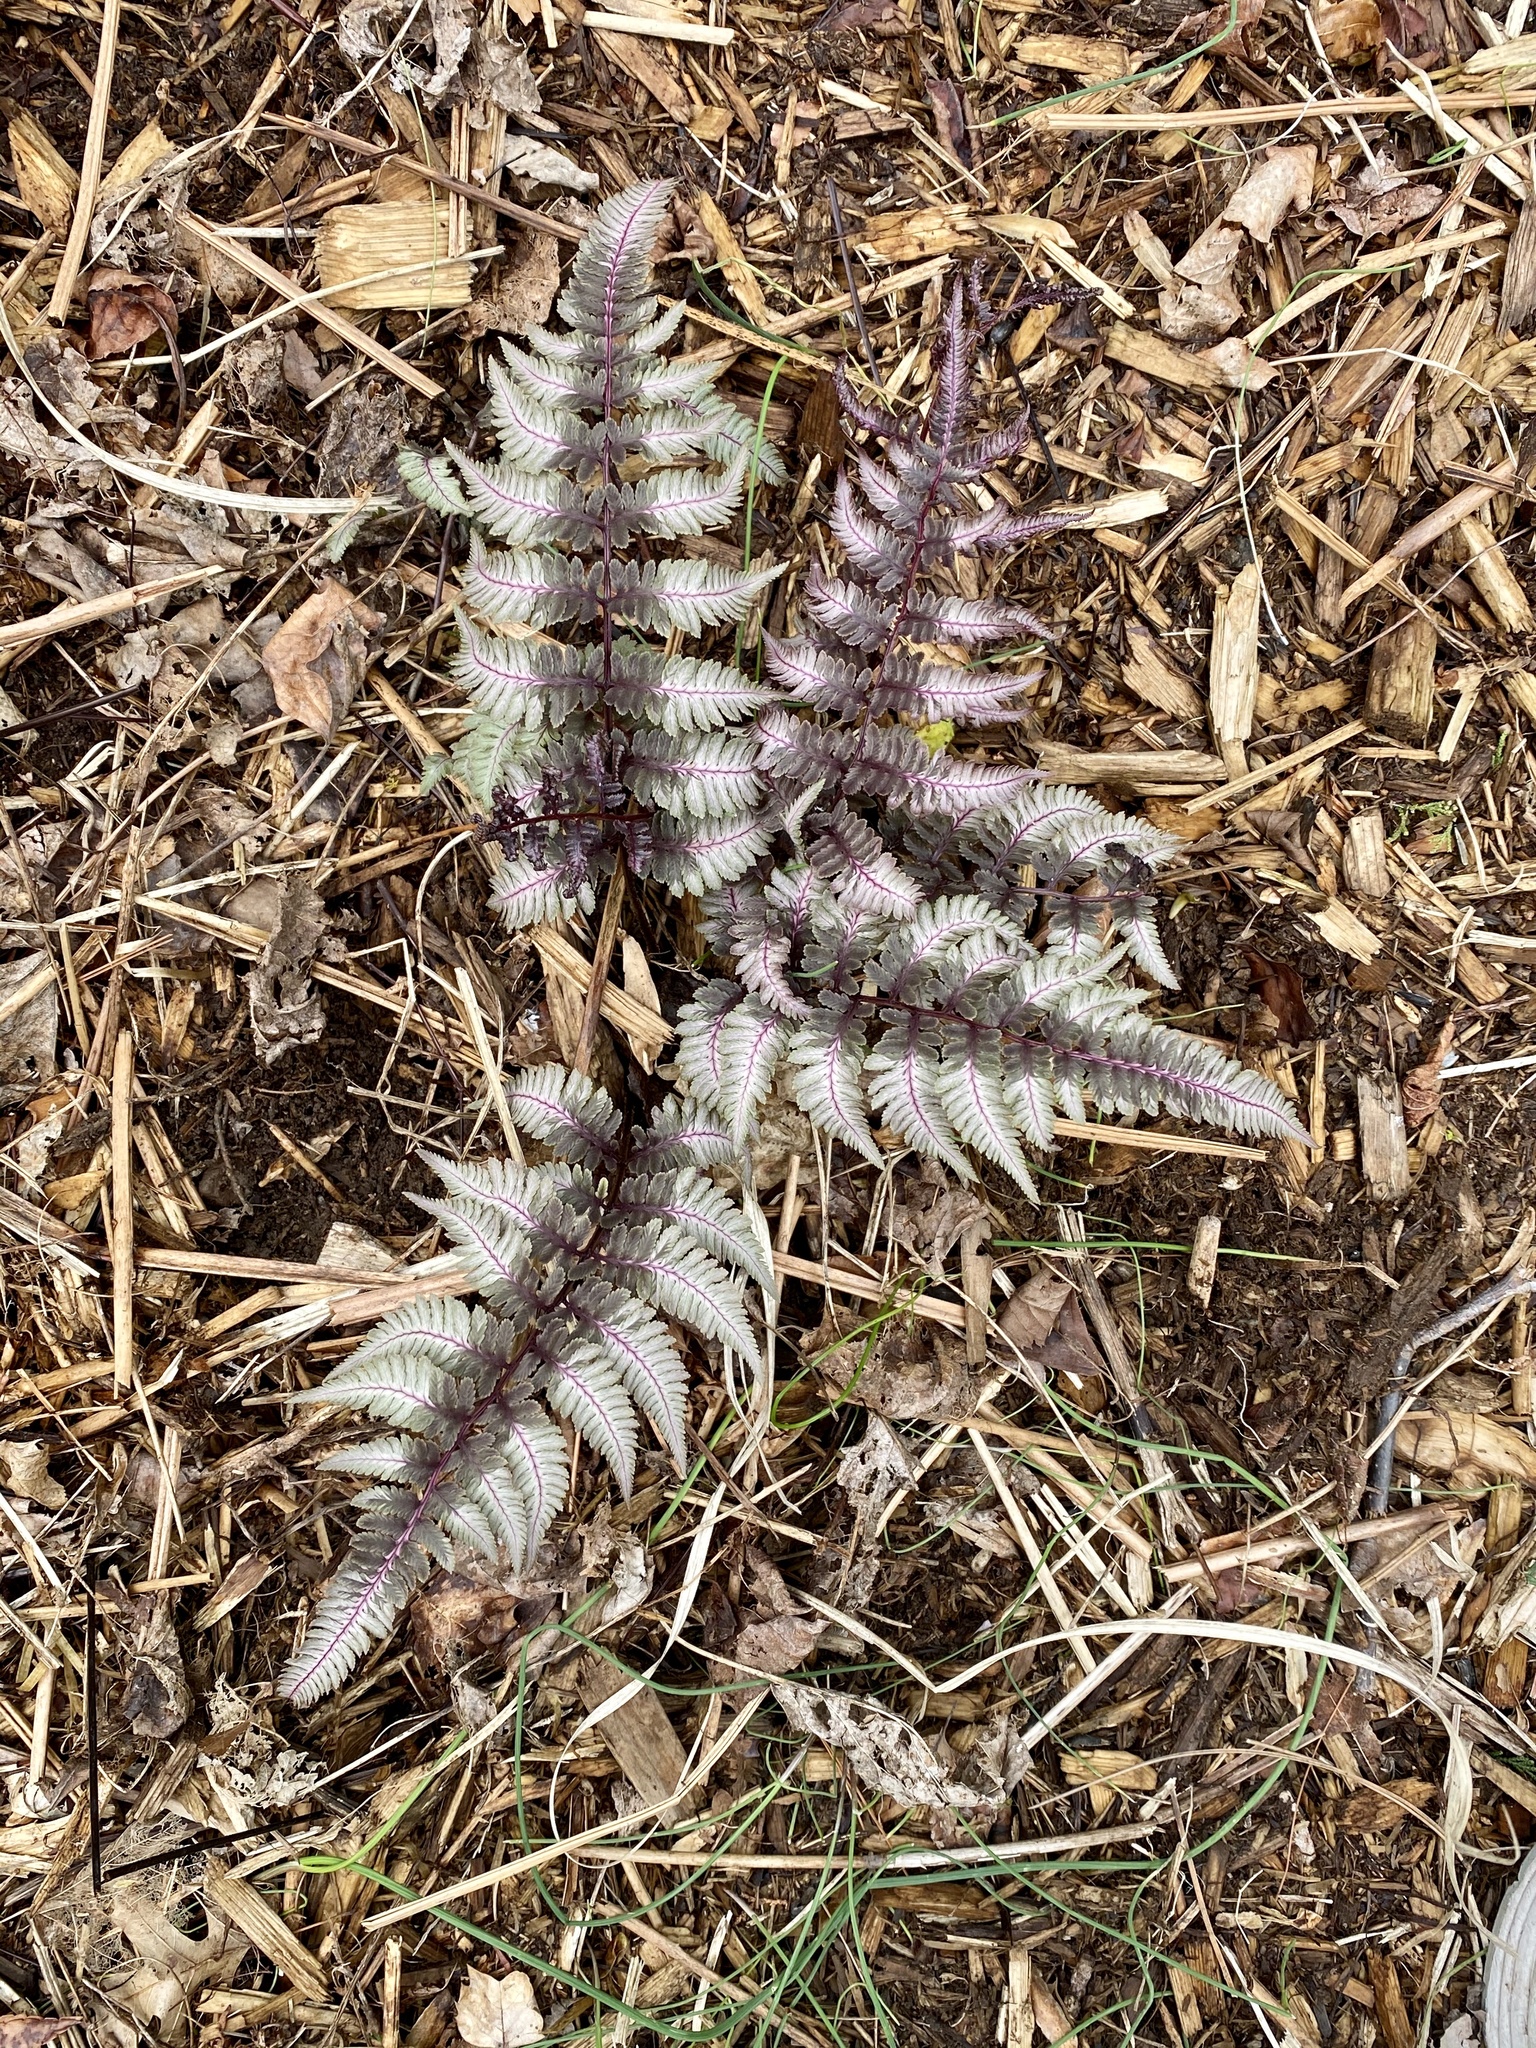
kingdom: Plantae
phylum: Tracheophyta
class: Polypodiopsida
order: Polypodiales
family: Athyriaceae
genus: Anisocampium
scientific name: Anisocampium niponicum
